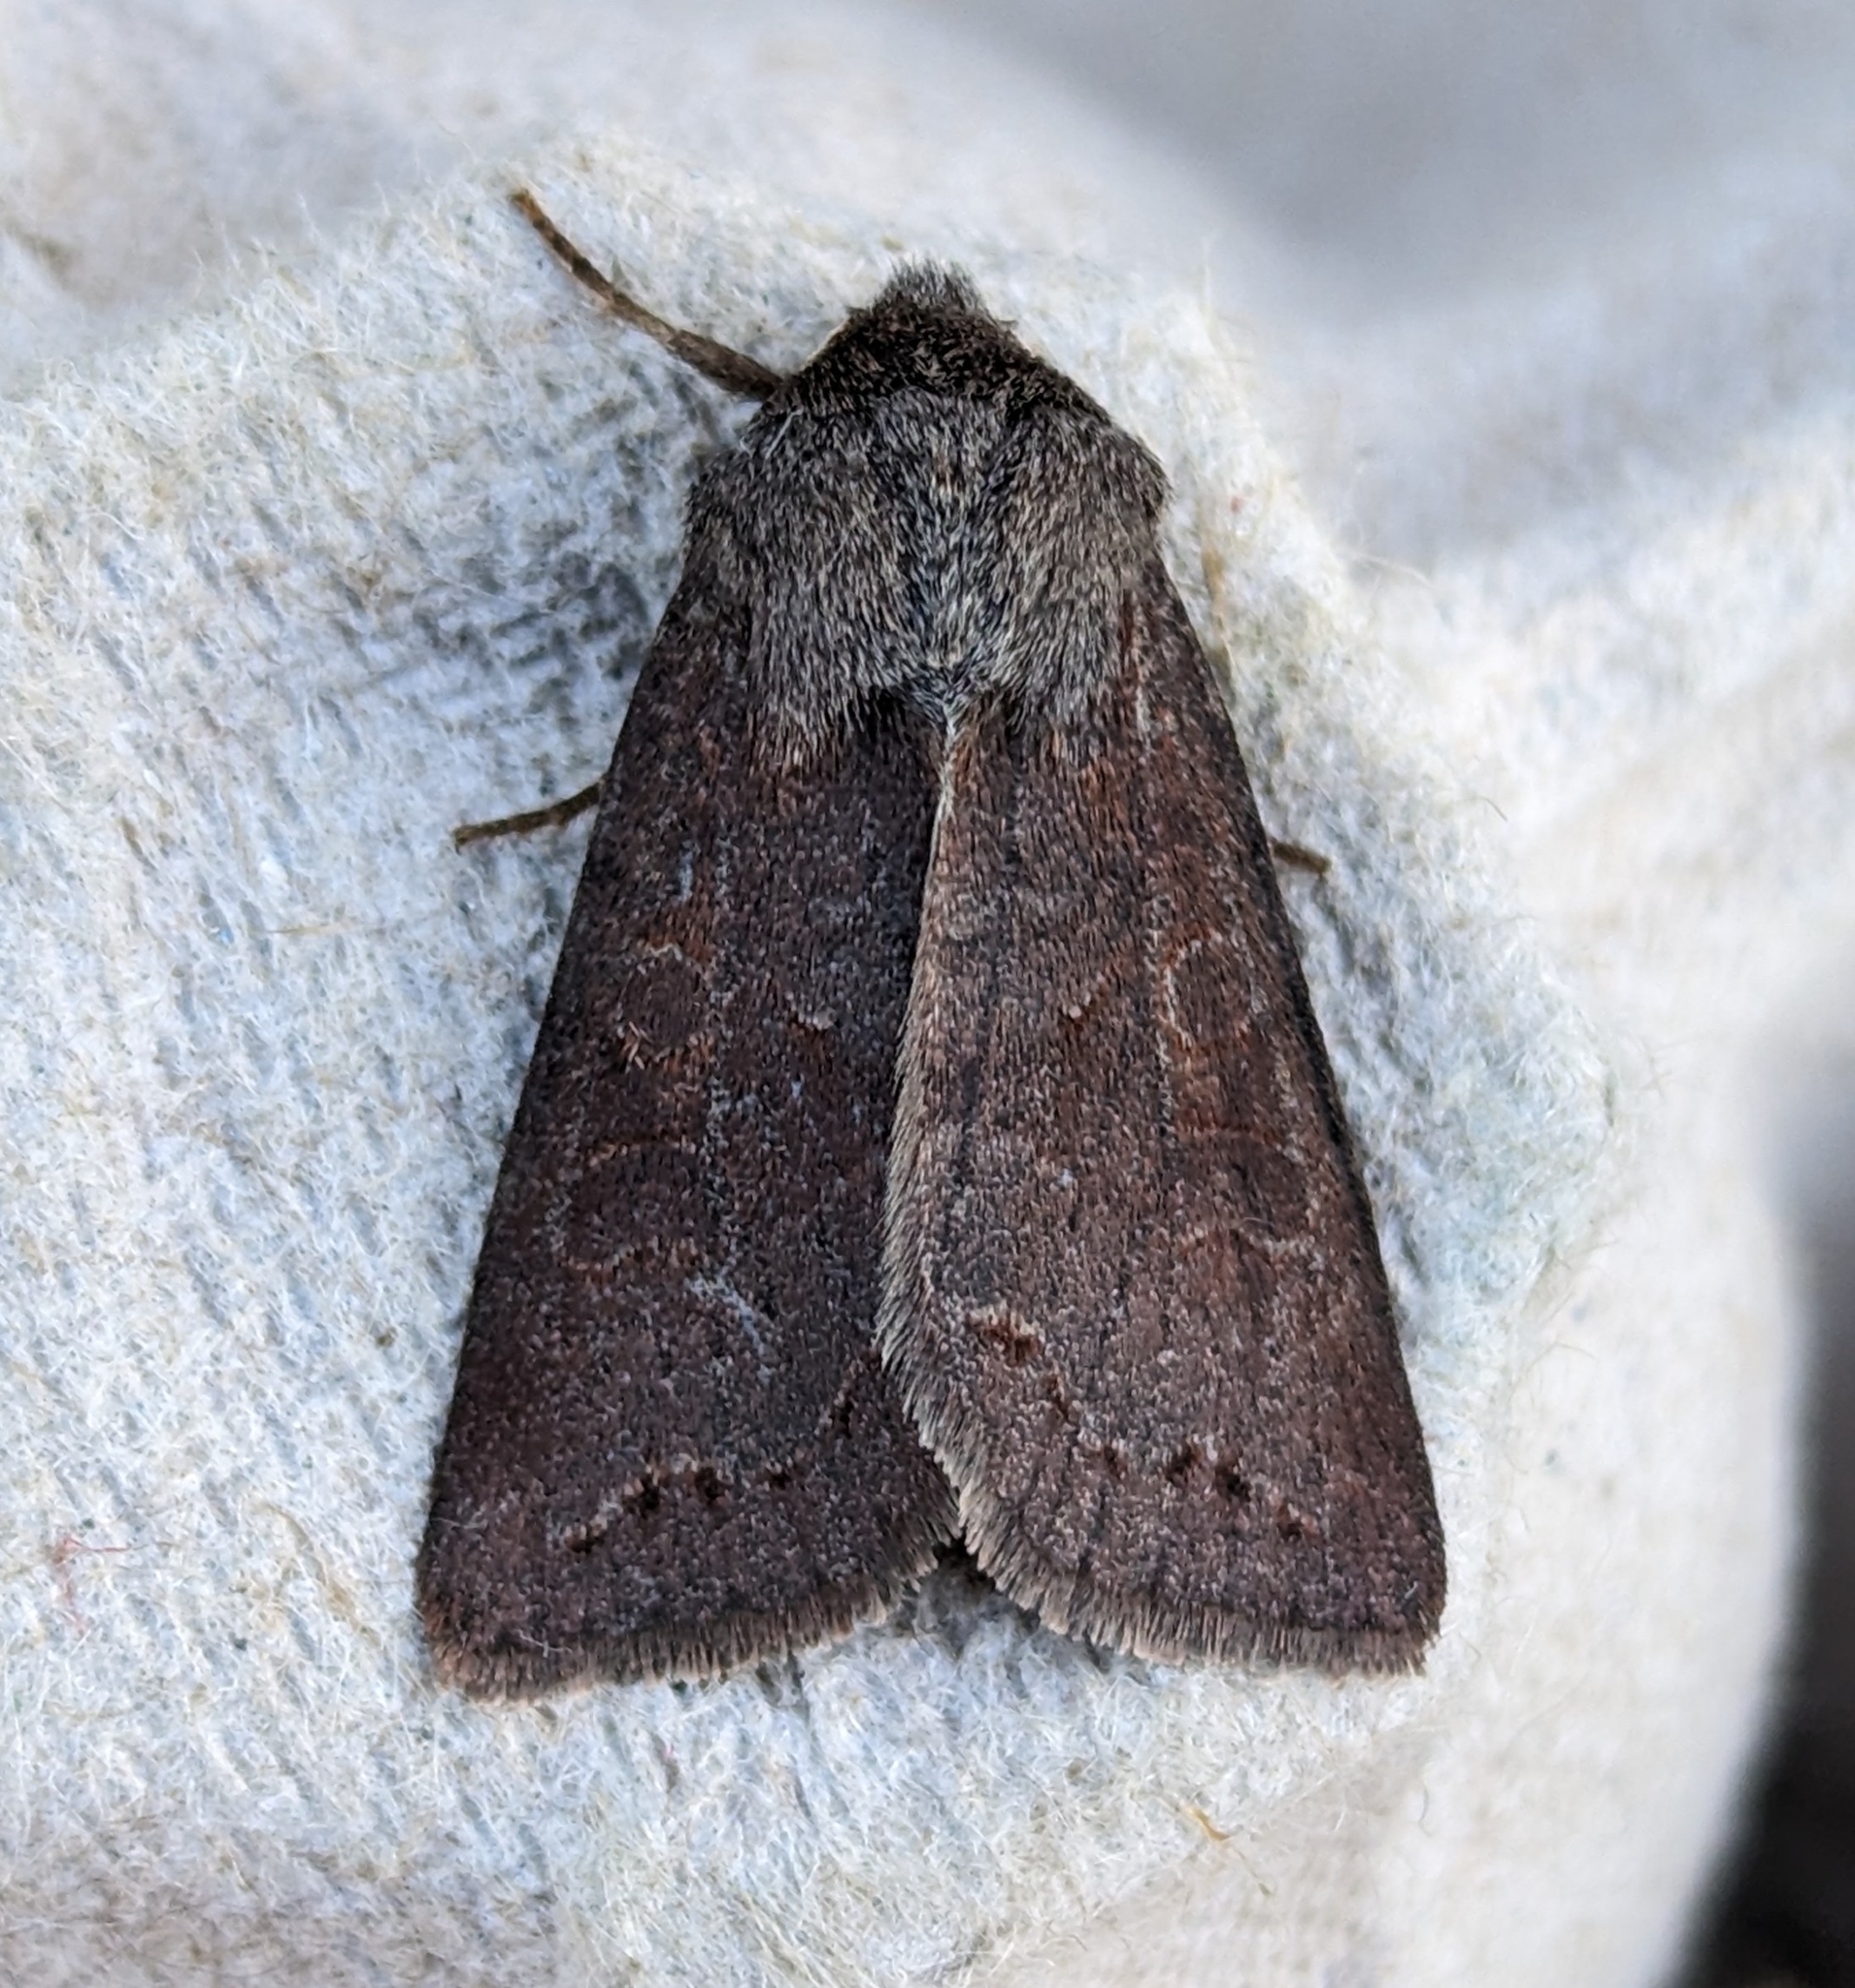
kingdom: Animalia
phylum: Arthropoda
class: Insecta
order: Lepidoptera
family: Noctuidae
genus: Orthosia
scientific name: Orthosia revicta
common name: Rusty whitesided caterpillar
